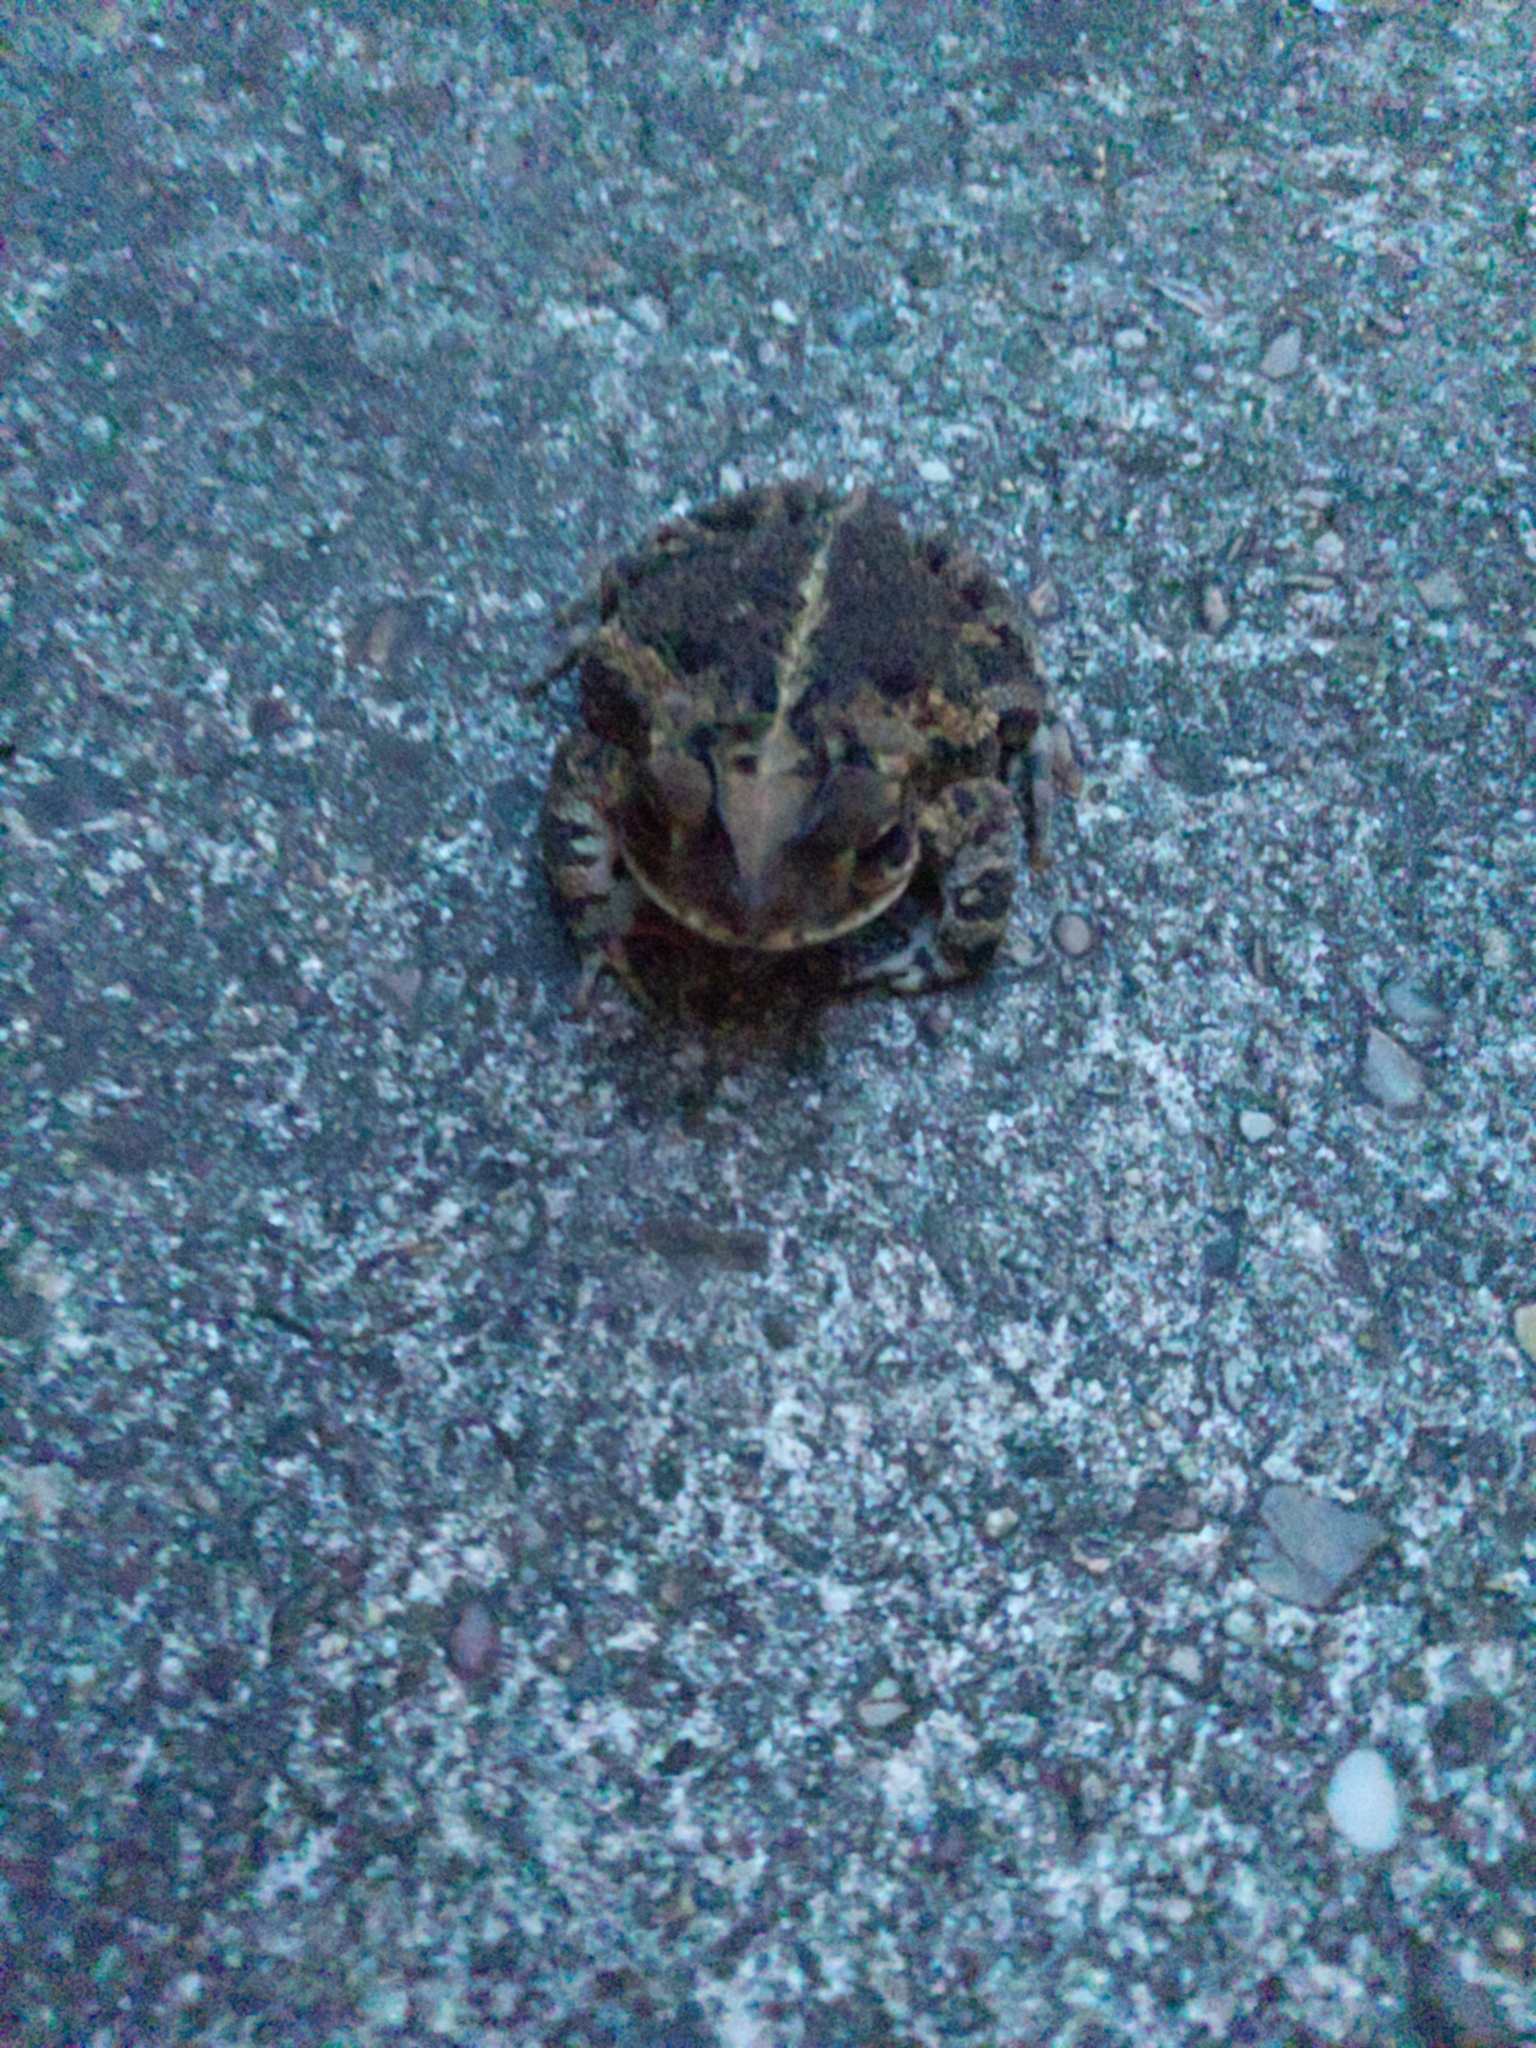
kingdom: Animalia
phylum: Chordata
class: Amphibia
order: Anura
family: Bufonidae
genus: Incilius
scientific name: Incilius nebulifer
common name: Gulf coast toad
